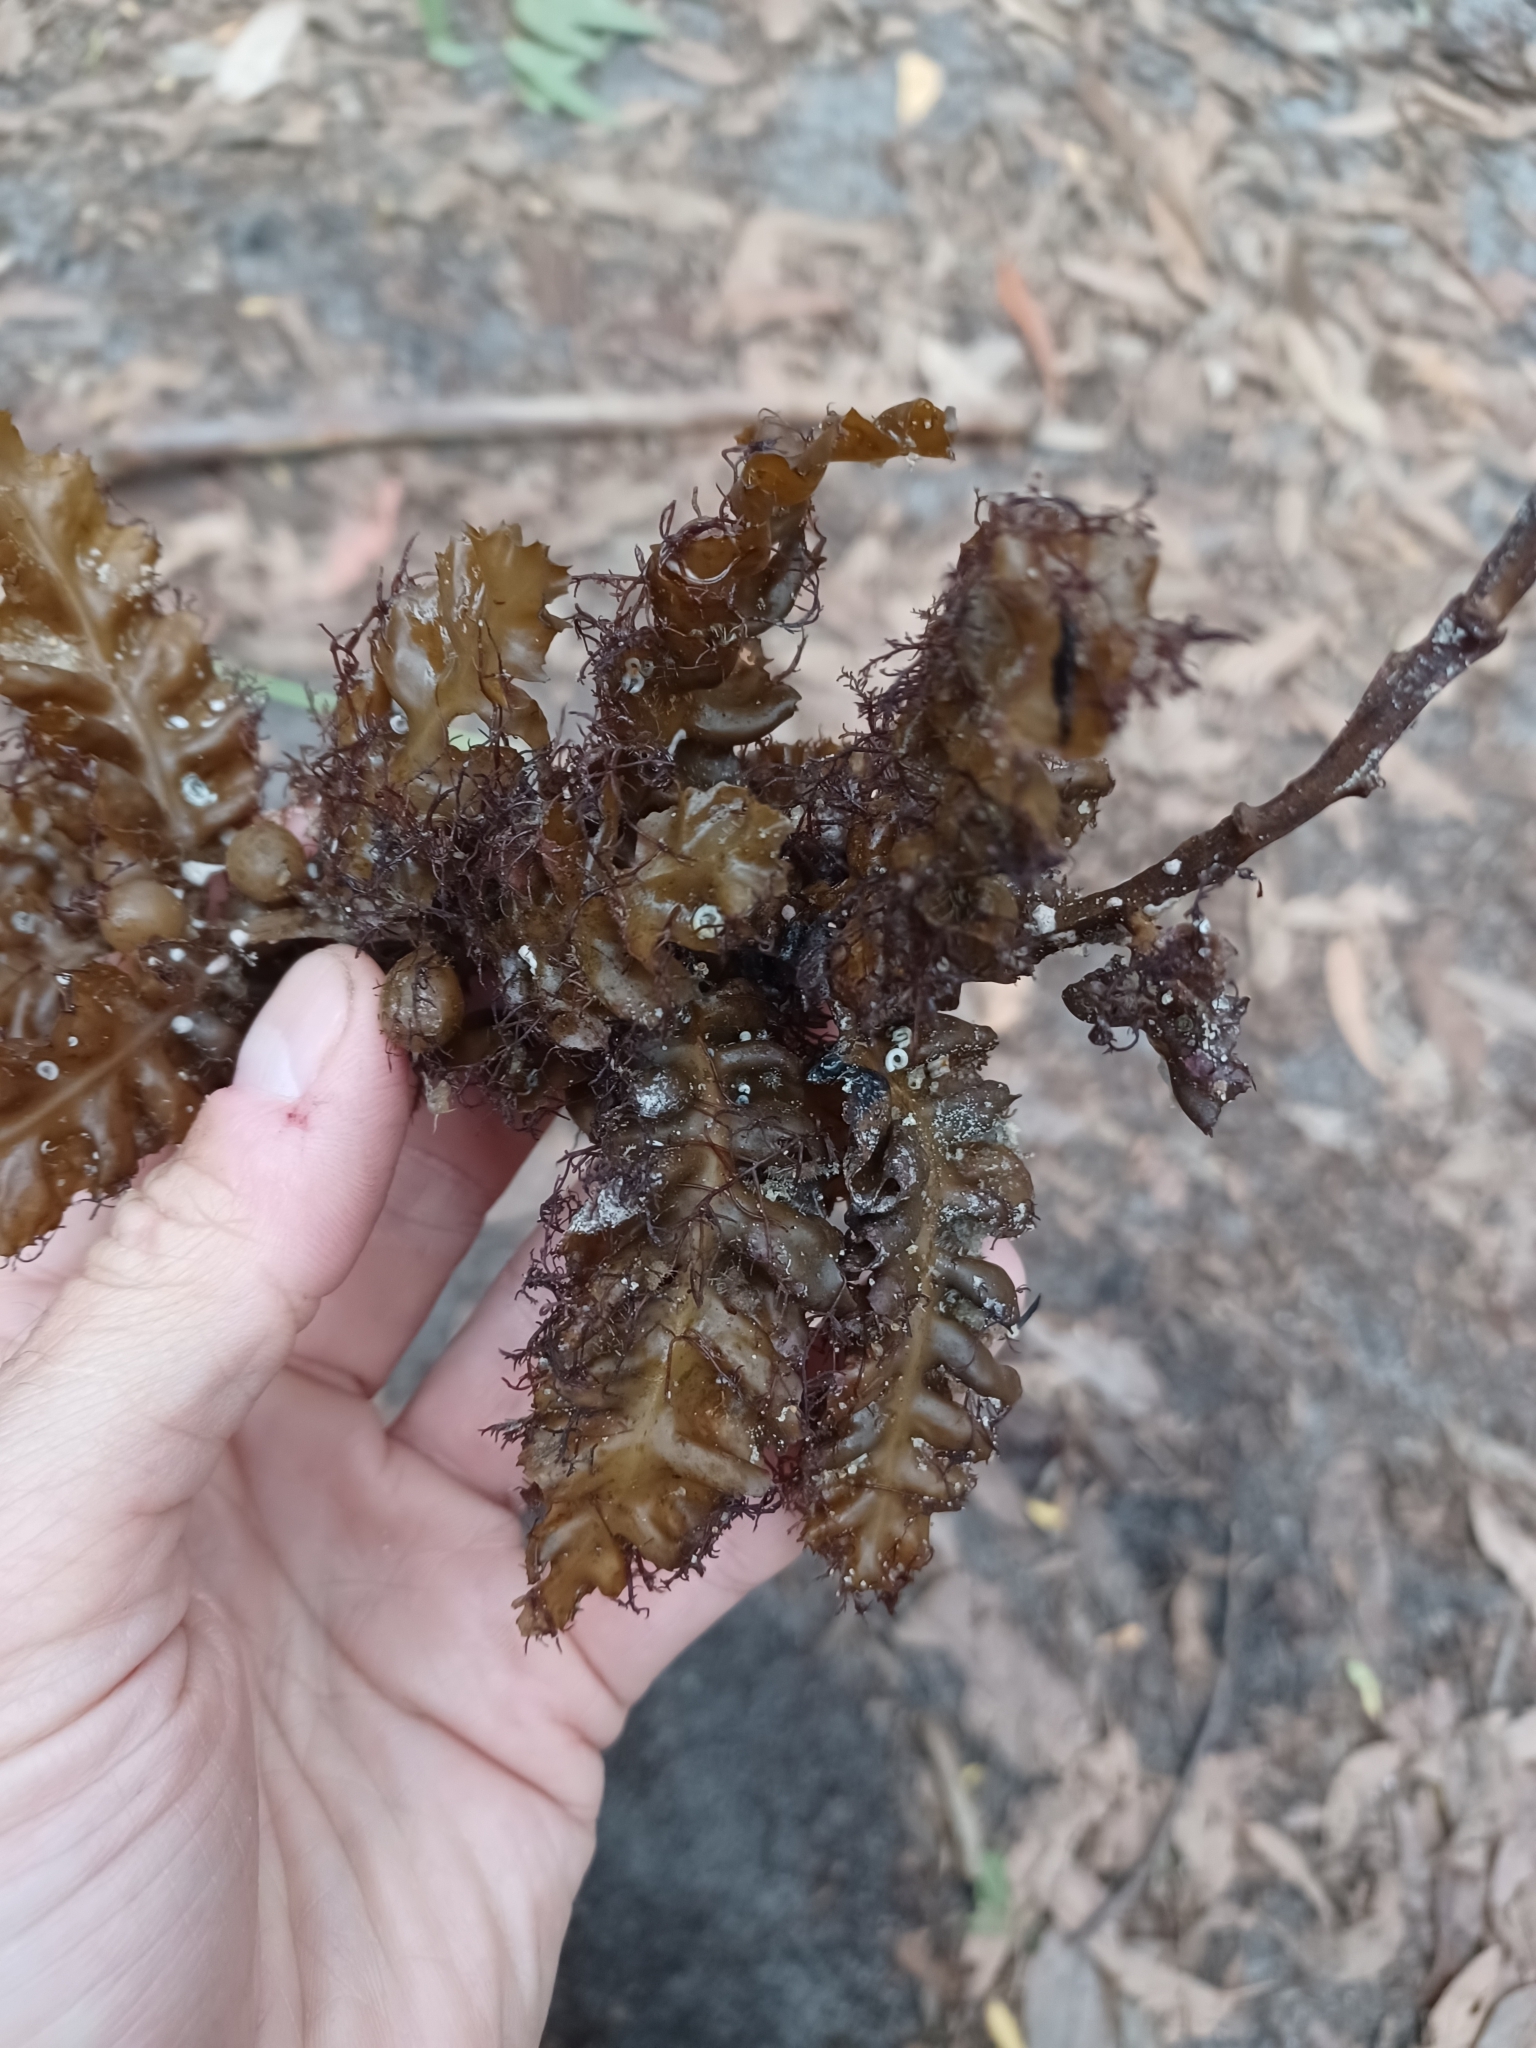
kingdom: Chromista
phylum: Ochrophyta
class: Phaeophyceae
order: Fucales
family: Sargassaceae
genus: Sargassum
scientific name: Sargassum
